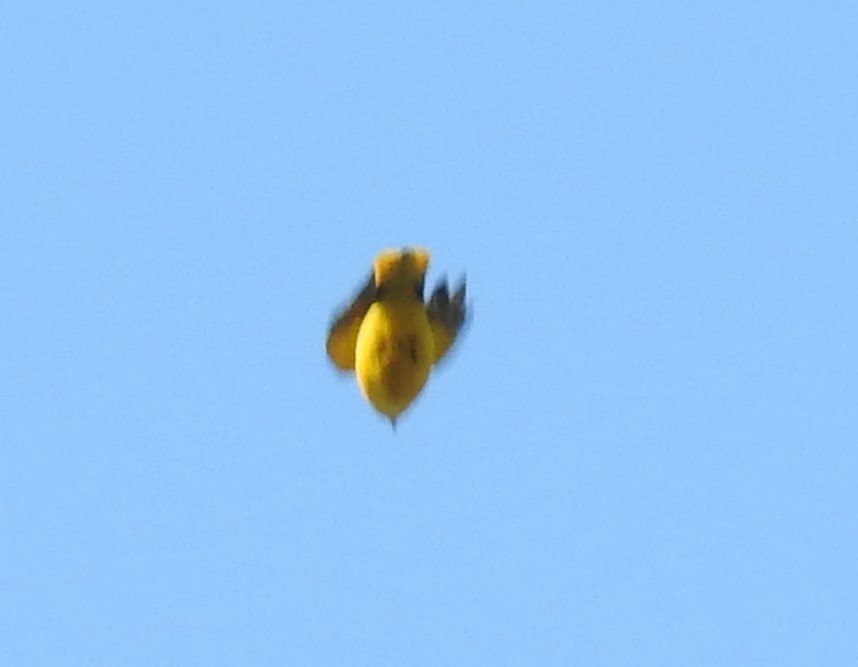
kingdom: Animalia
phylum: Chordata
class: Aves
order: Passeriformes
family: Oriolidae
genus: Oriolus
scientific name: Oriolus oriolus
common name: Eurasian golden oriole
